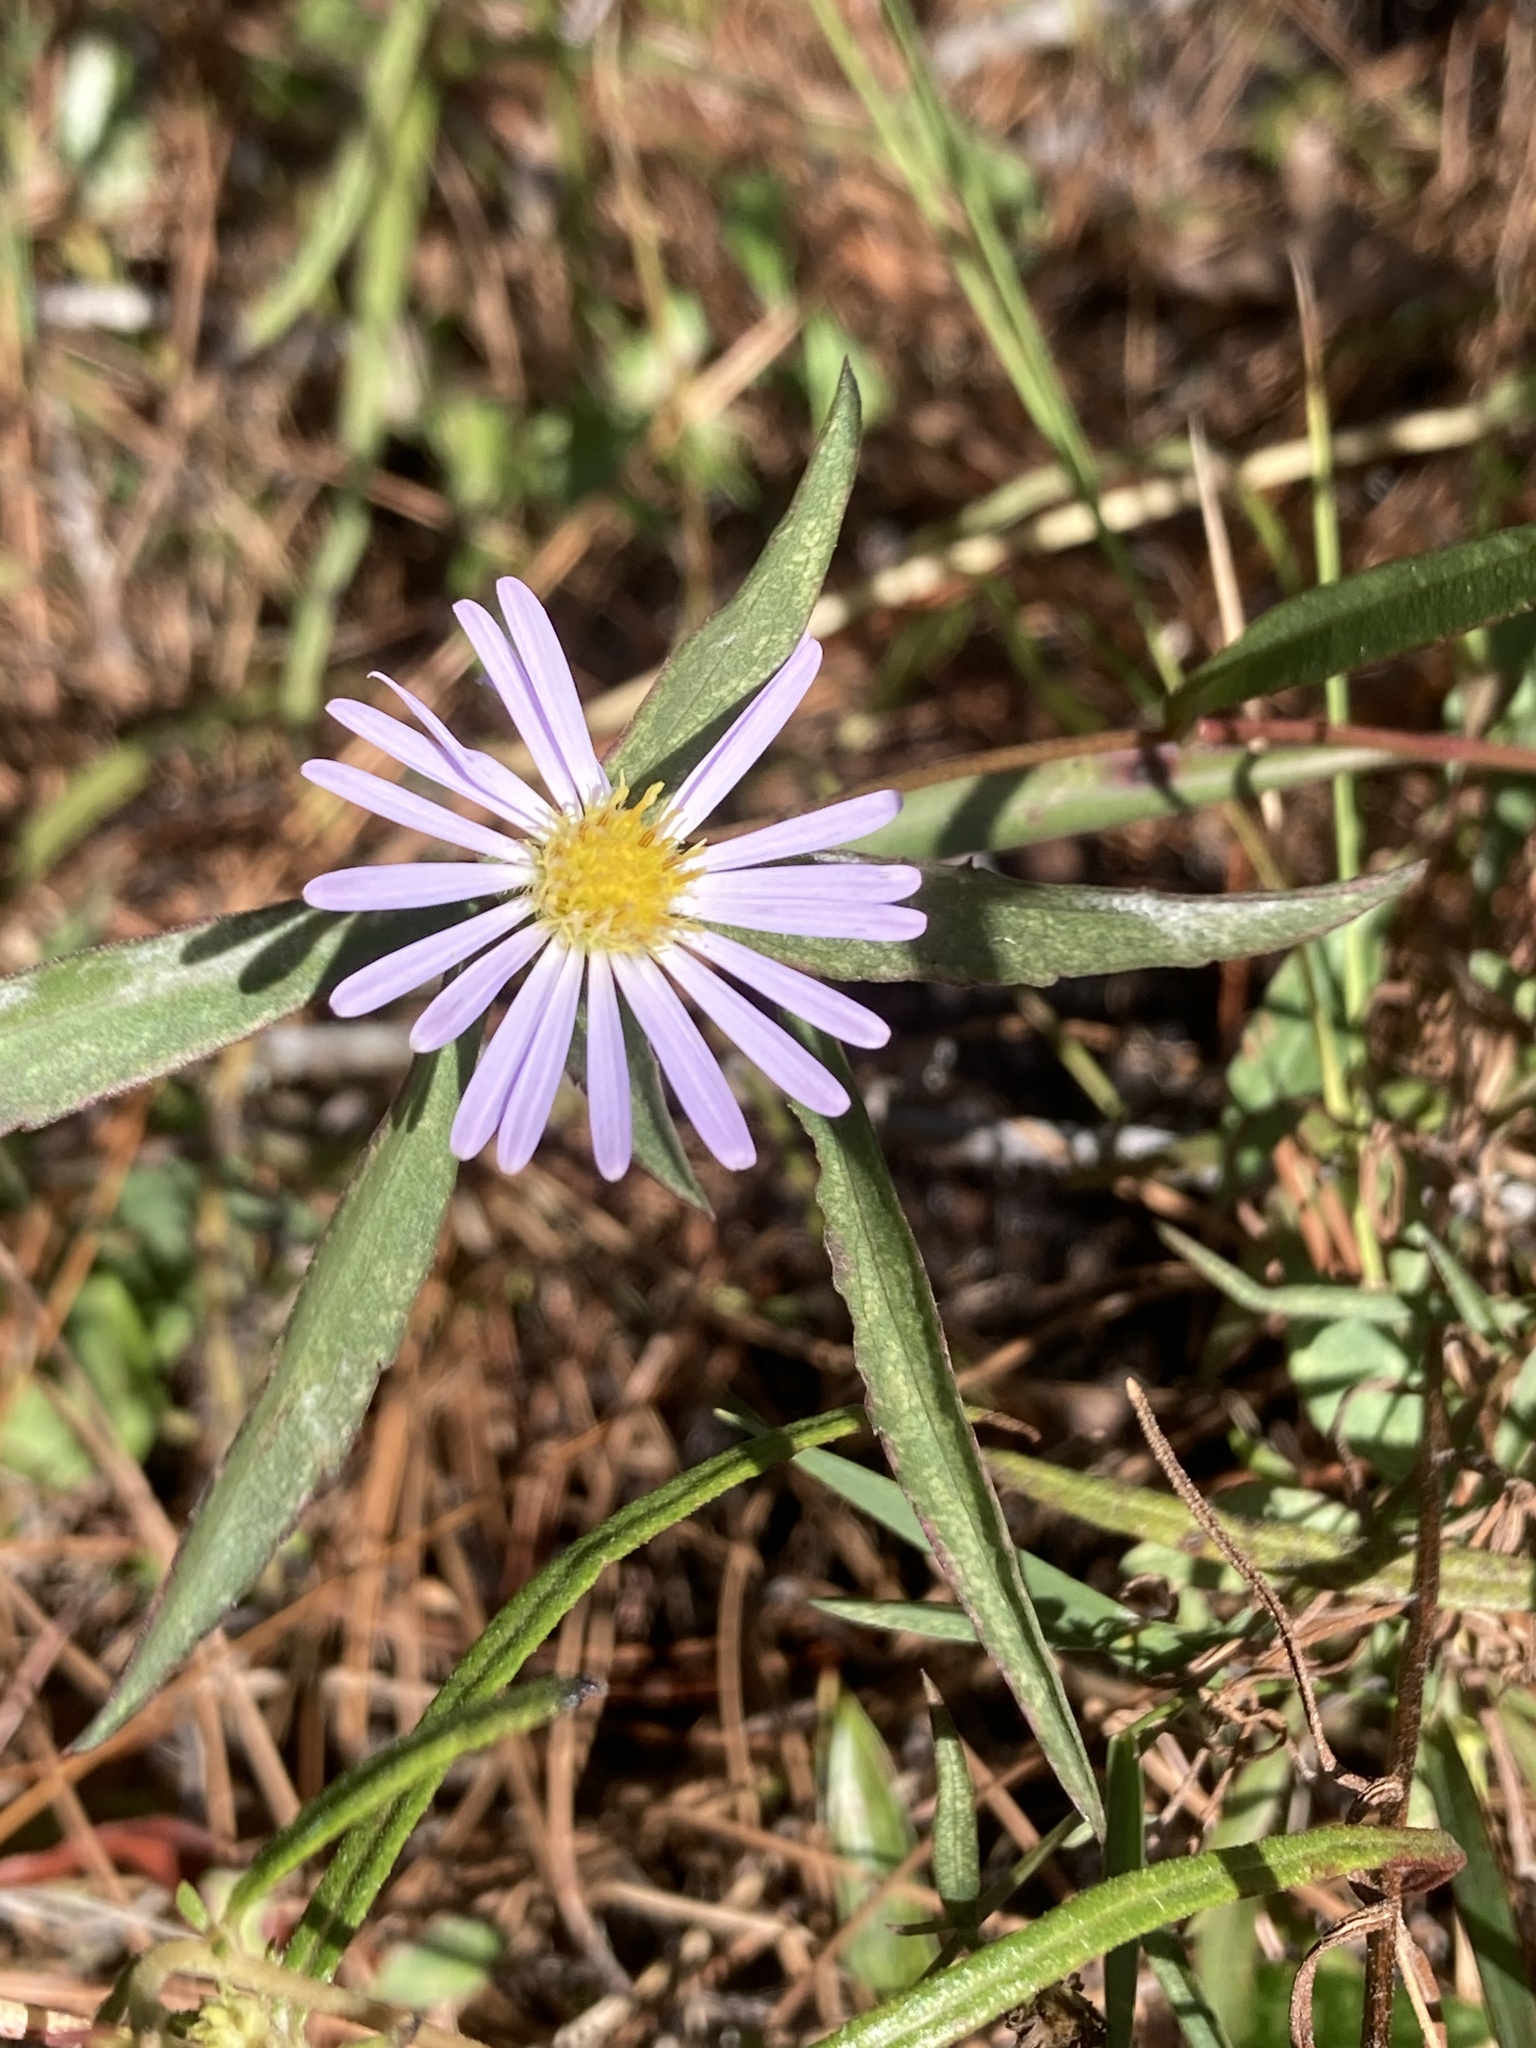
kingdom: Plantae
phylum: Tracheophyta
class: Magnoliopsida
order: Asterales
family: Asteraceae
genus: Symphyotrichum
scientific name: Symphyotrichum simmondsii
